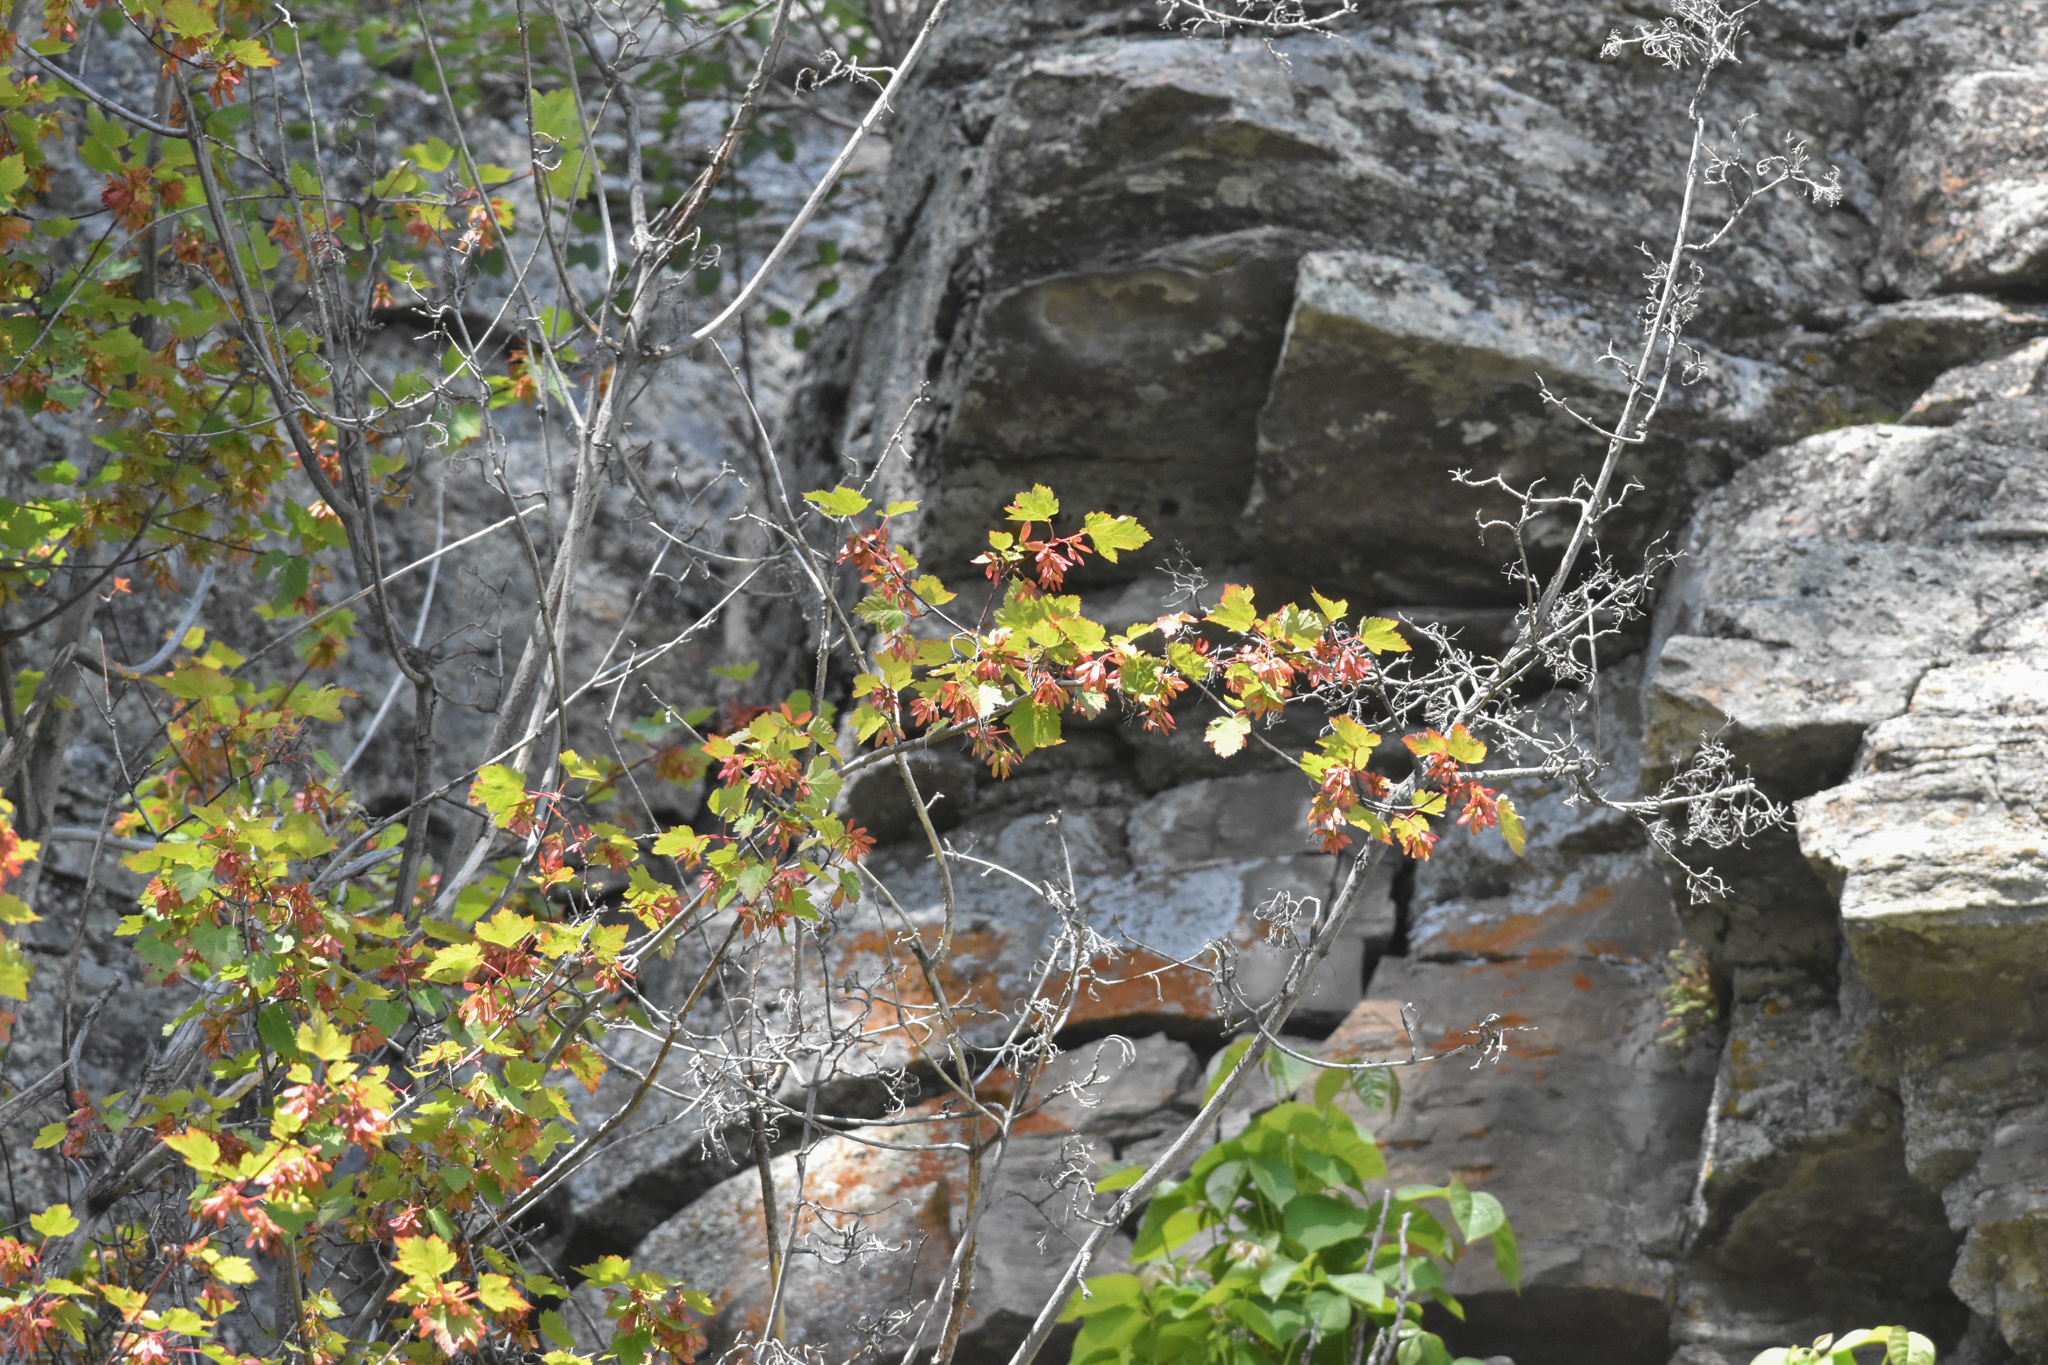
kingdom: Plantae
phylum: Tracheophyta
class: Magnoliopsida
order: Sapindales
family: Sapindaceae
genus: Acer
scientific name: Acer glabrum
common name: Rocky mountain maple
